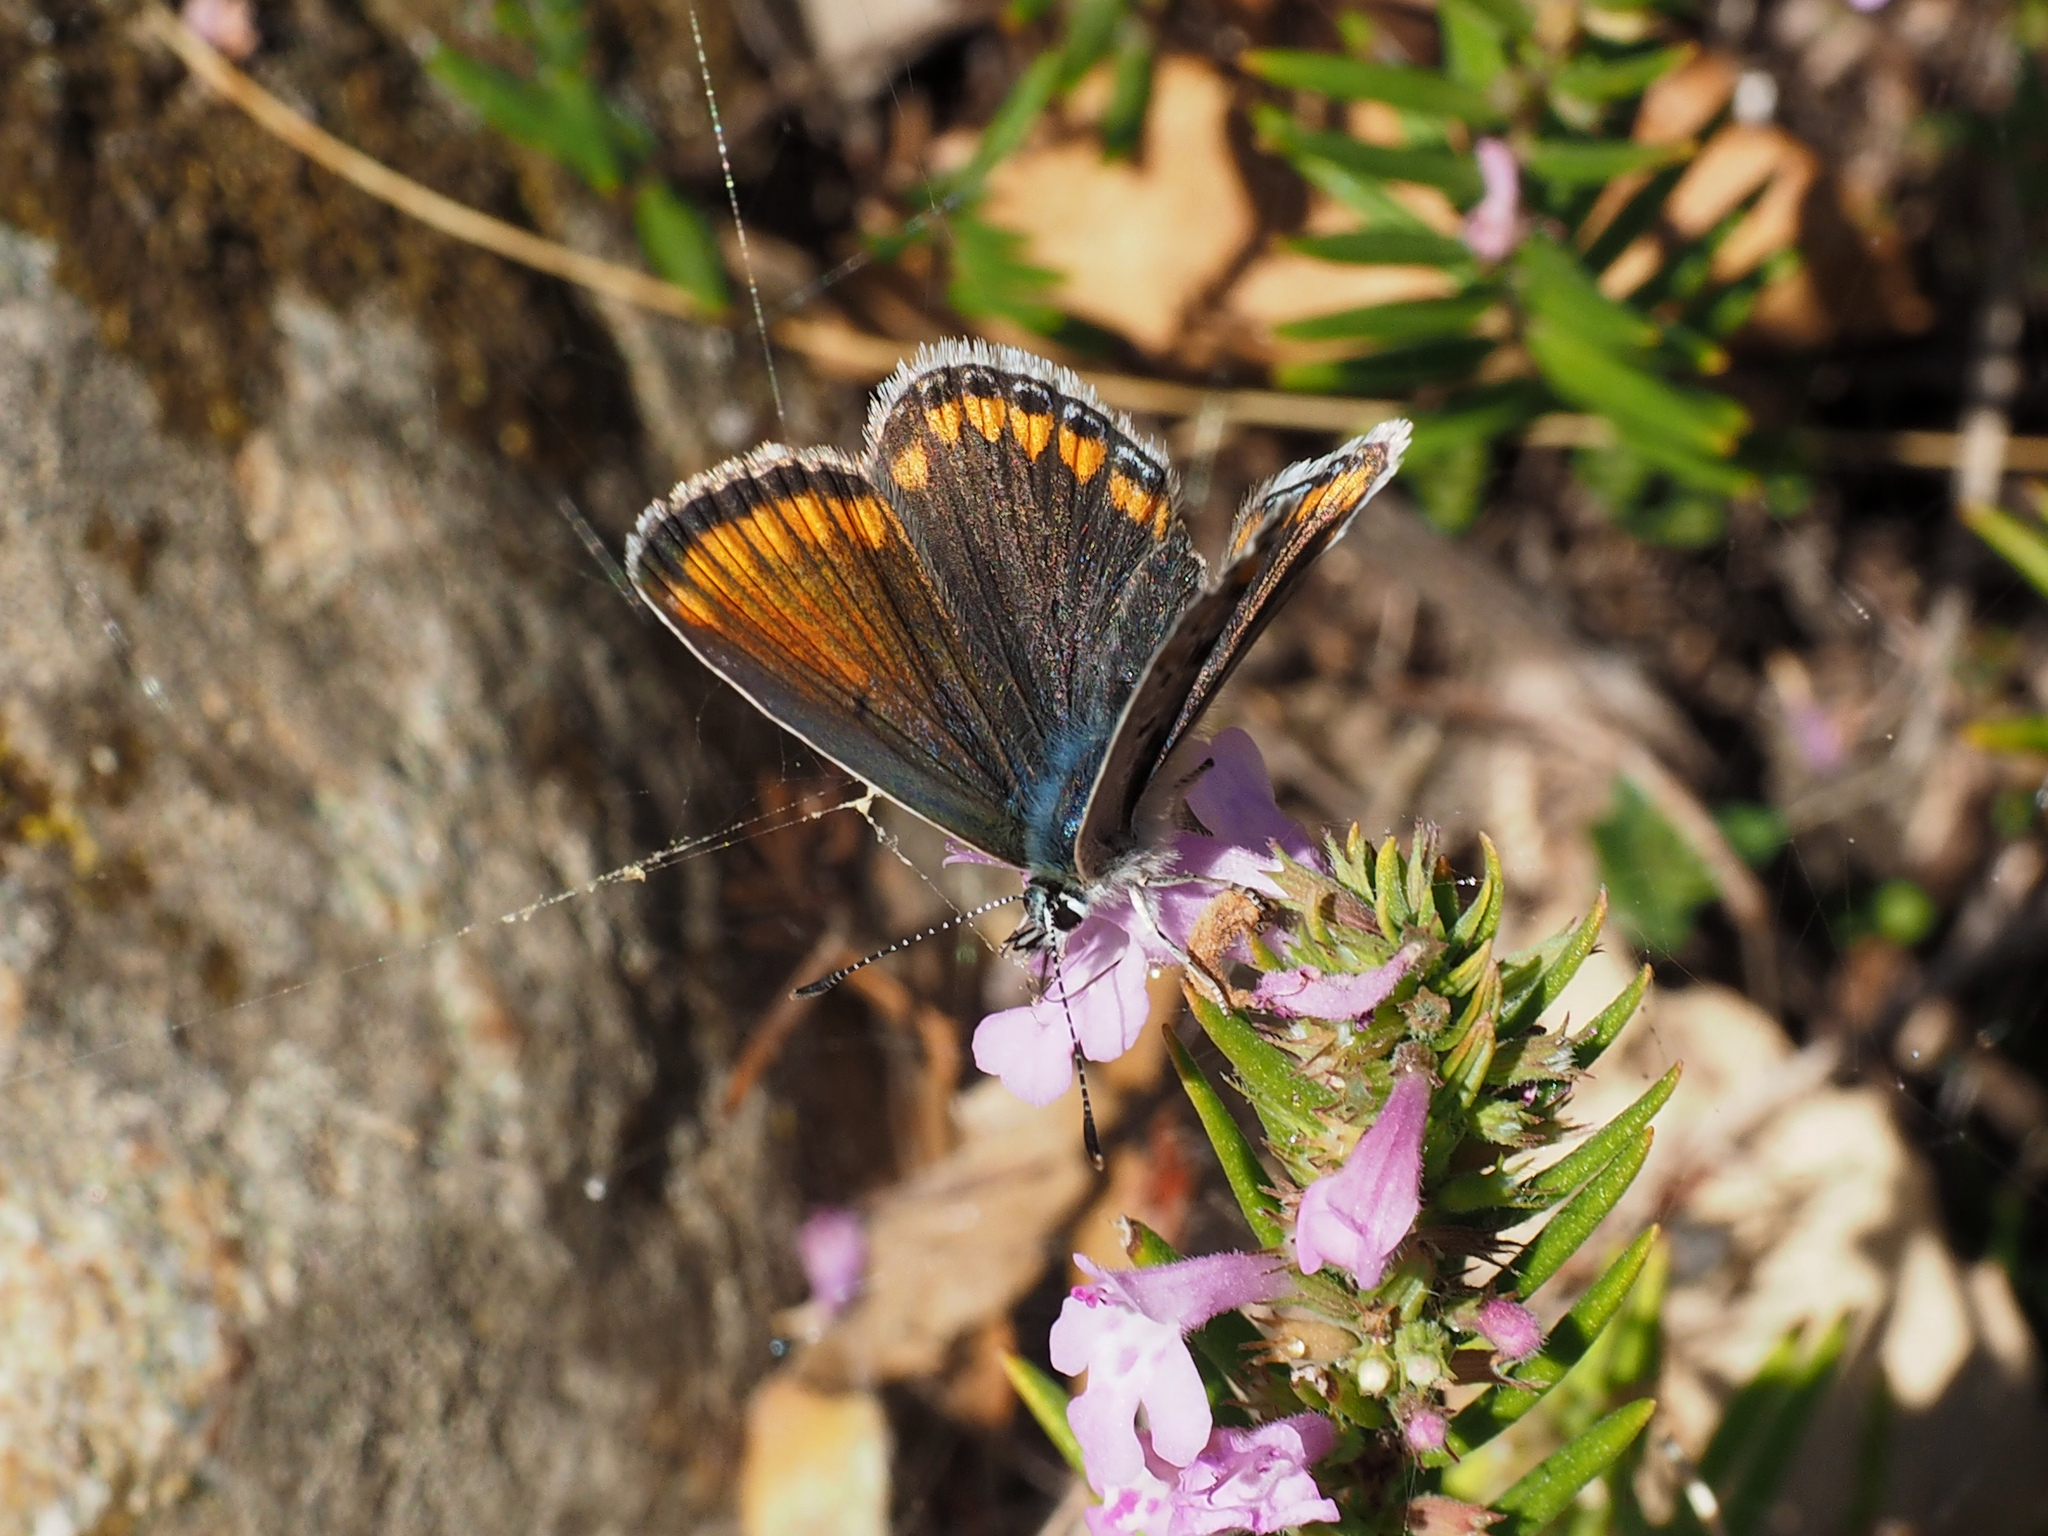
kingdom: Animalia
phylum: Arthropoda
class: Insecta
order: Lepidoptera
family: Lycaenidae
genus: Polyommatus
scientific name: Polyommatus celina
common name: Austaut's blue
